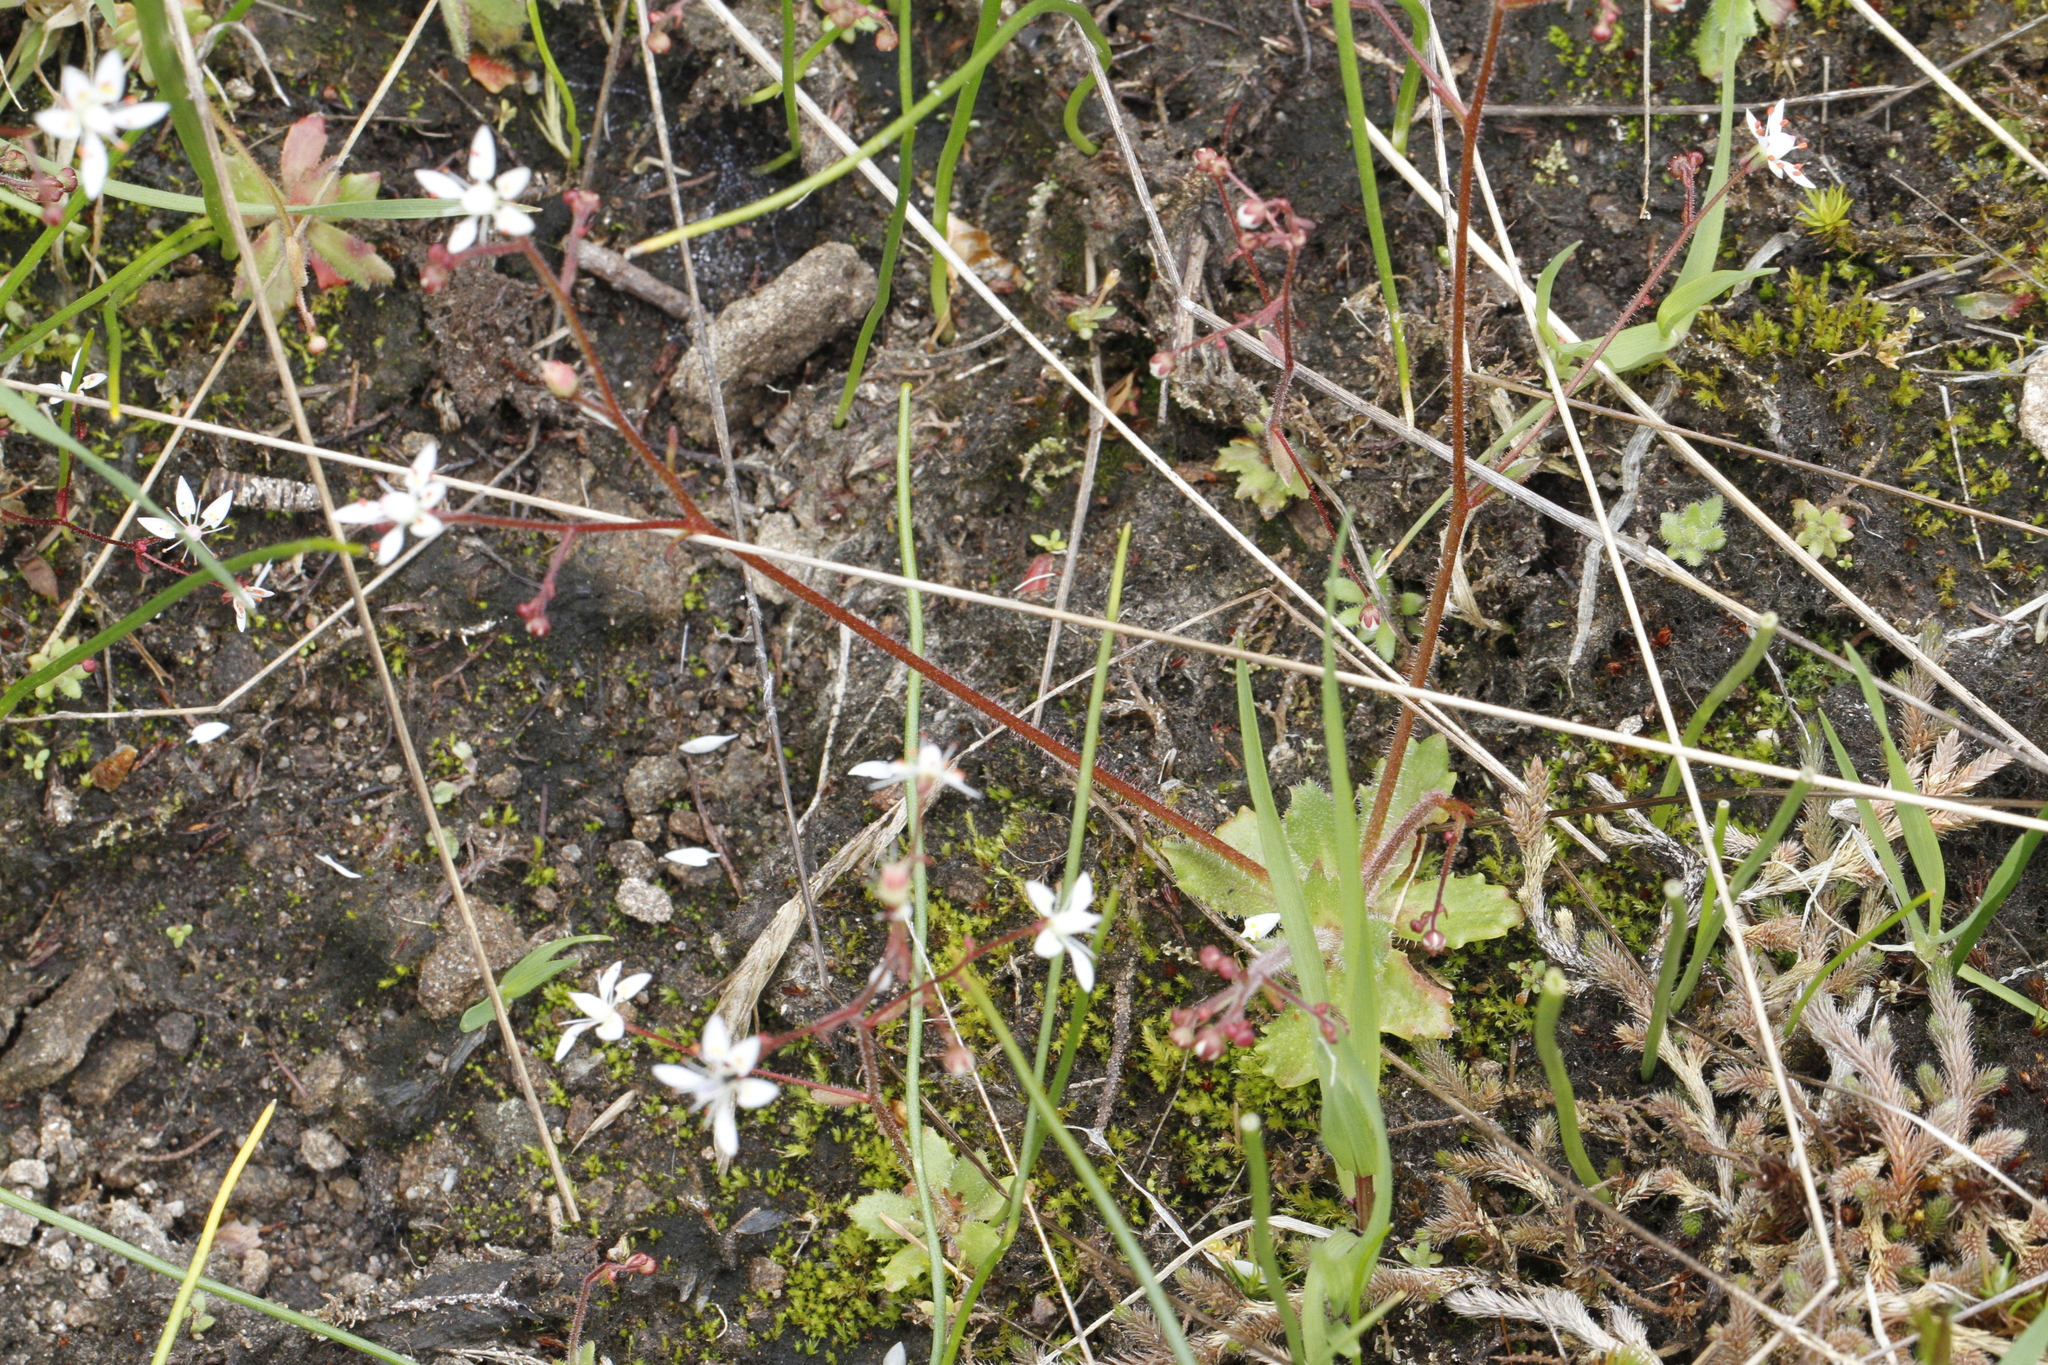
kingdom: Plantae
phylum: Tracheophyta
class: Magnoliopsida
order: Saxifragales
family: Saxifragaceae
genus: Micranthes
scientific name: Micranthes ferruginea
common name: Rusty saxifrage
